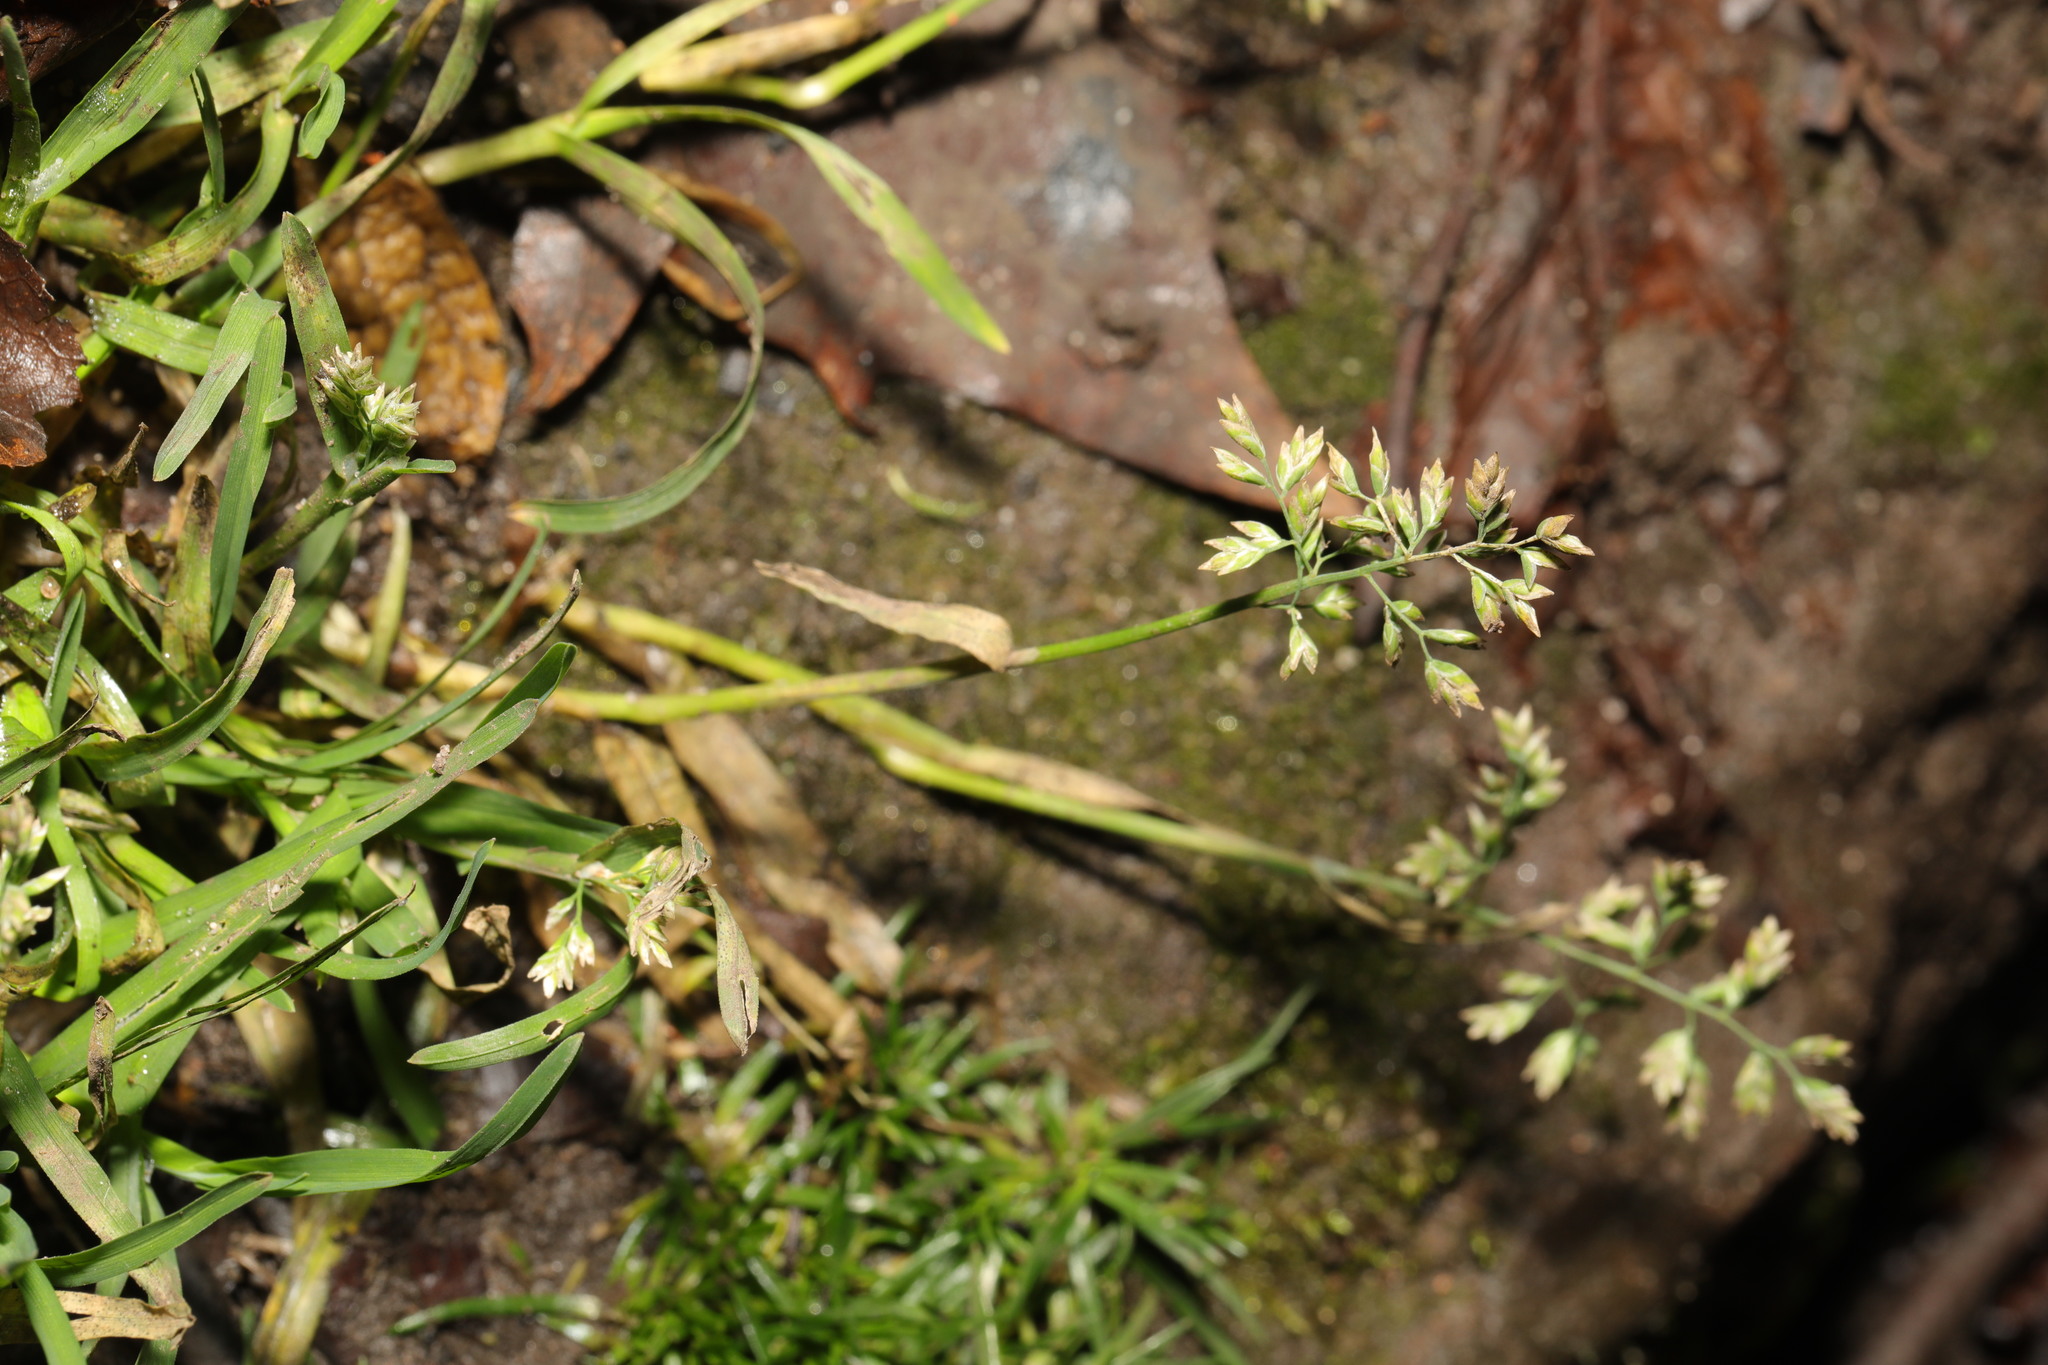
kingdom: Plantae
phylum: Tracheophyta
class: Liliopsida
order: Poales
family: Poaceae
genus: Poa
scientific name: Poa annua
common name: Annual bluegrass
